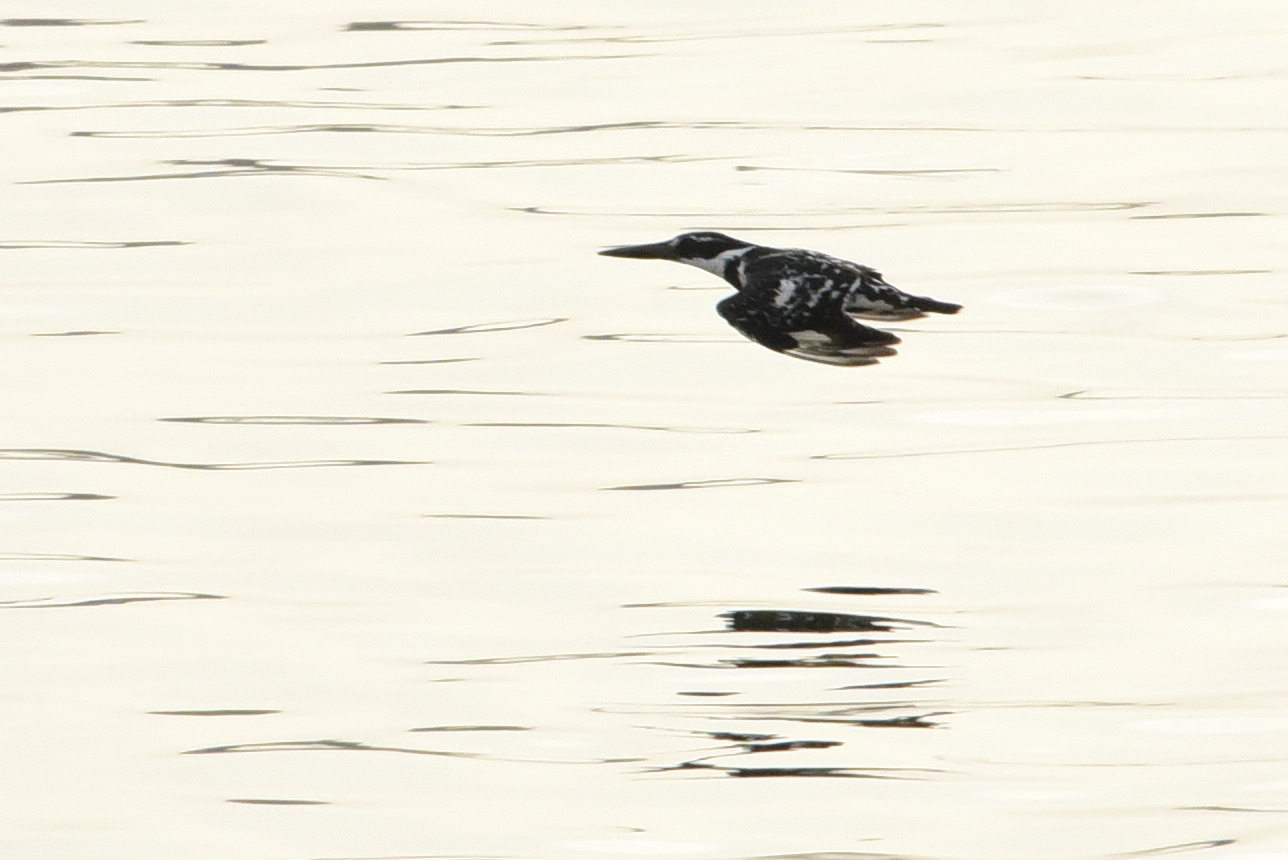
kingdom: Animalia
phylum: Chordata
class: Aves
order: Coraciiformes
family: Alcedinidae
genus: Ceryle
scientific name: Ceryle rudis
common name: Pied kingfisher
